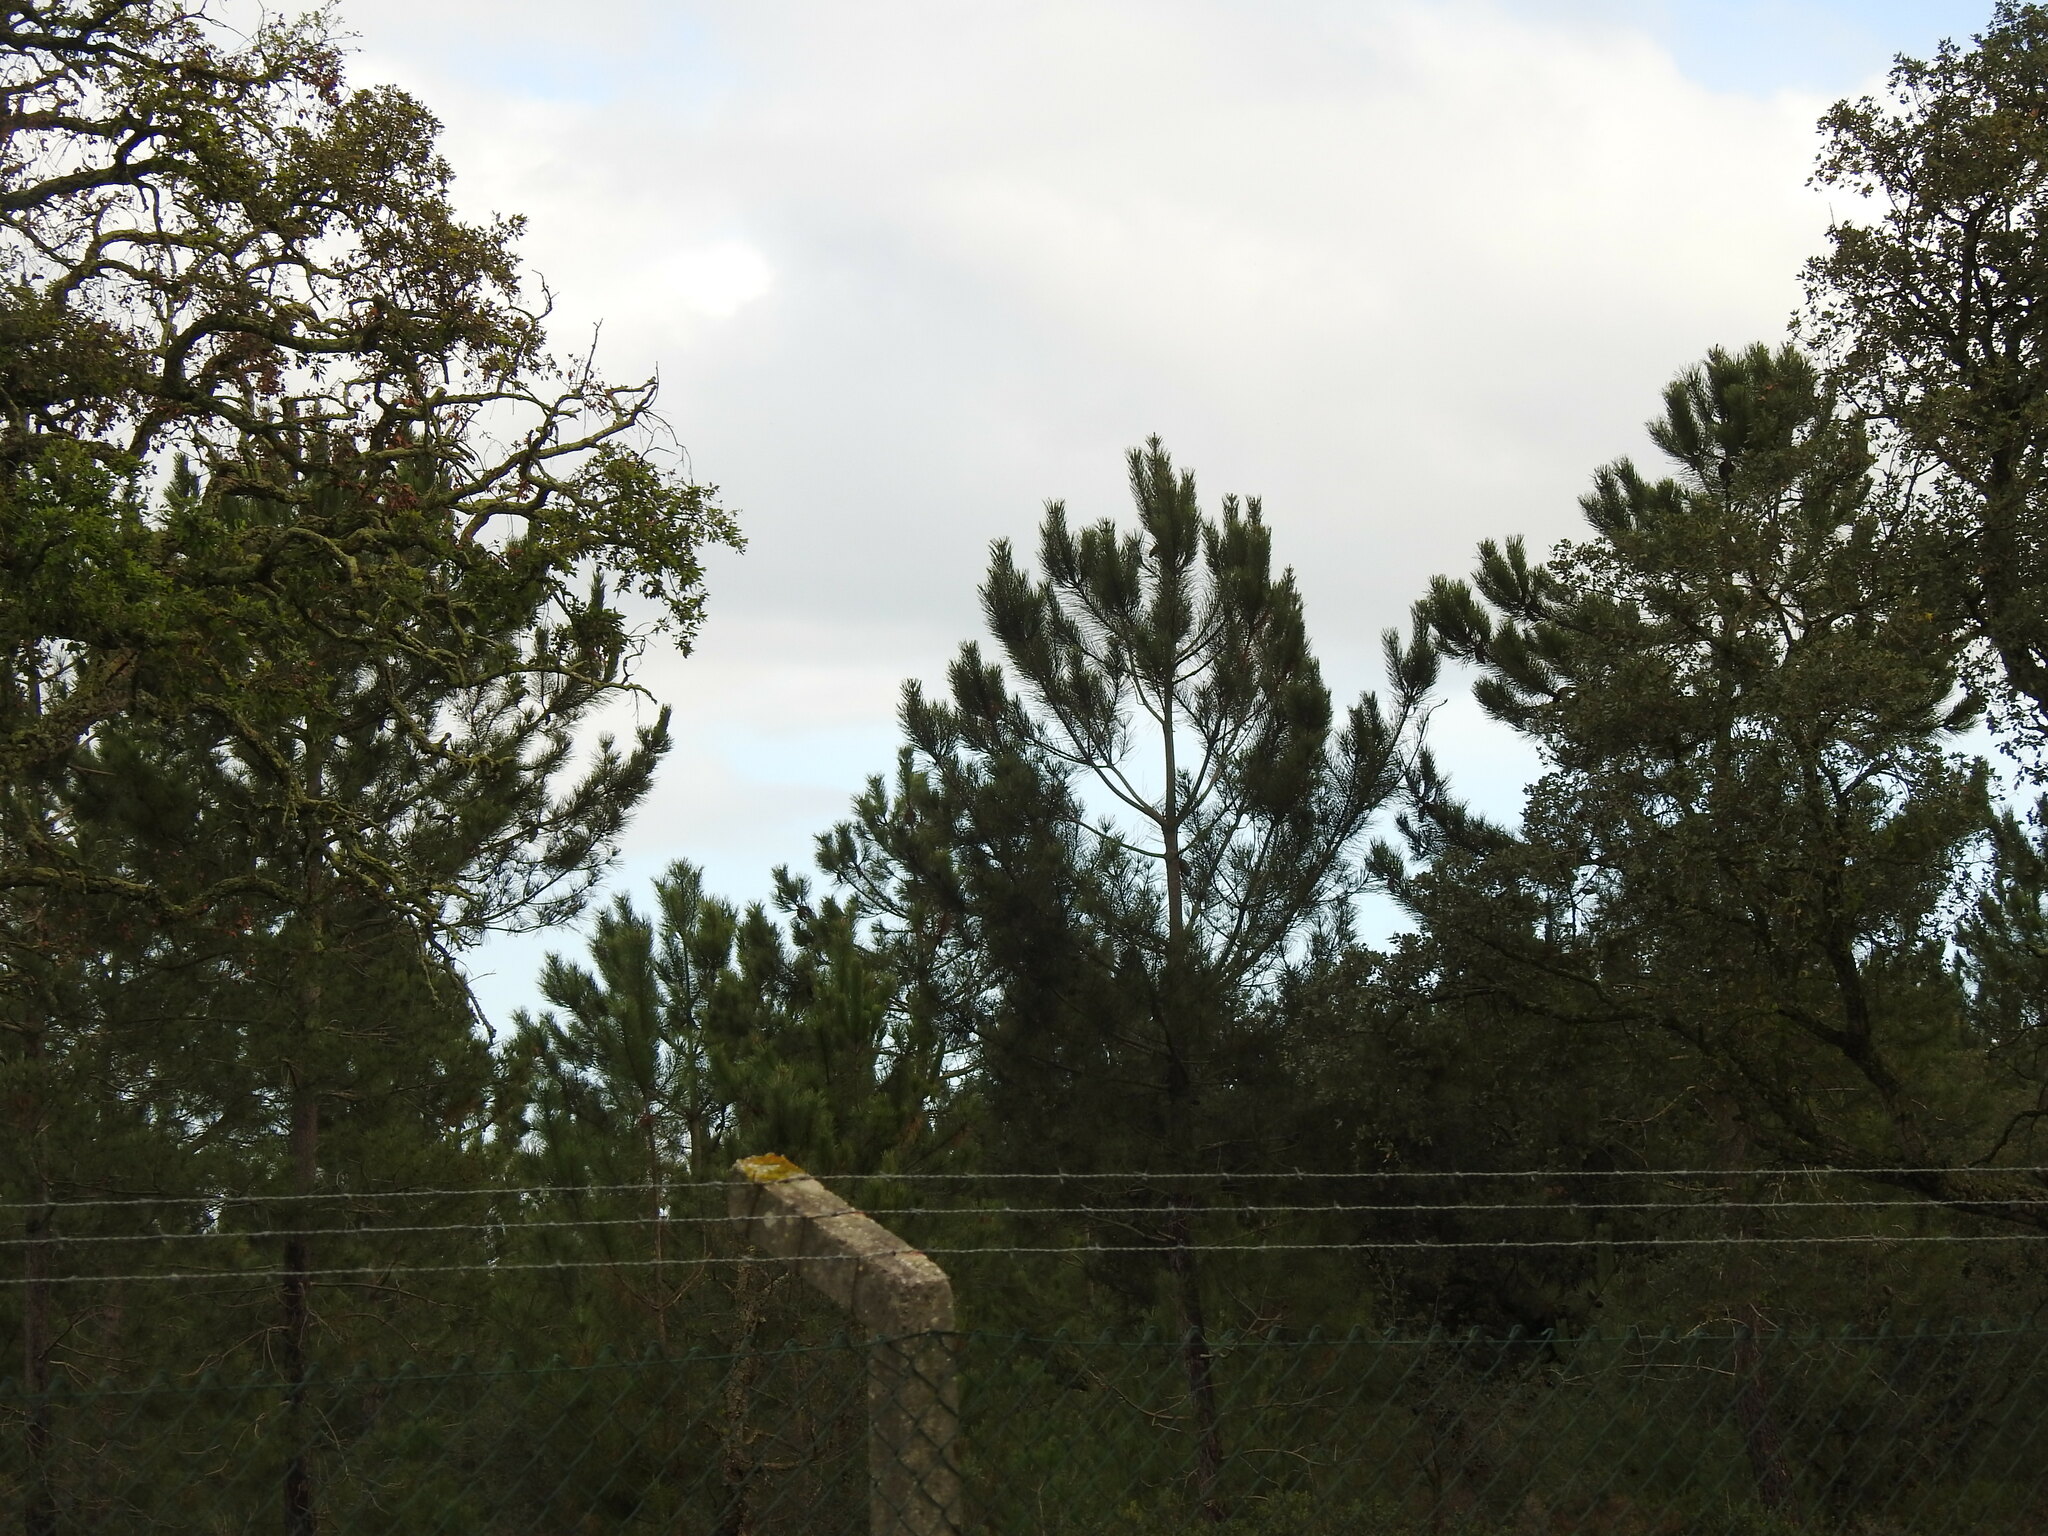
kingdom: Plantae
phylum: Tracheophyta
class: Pinopsida
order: Pinales
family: Pinaceae
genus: Pinus
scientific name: Pinus pinaster
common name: Maritime pine
